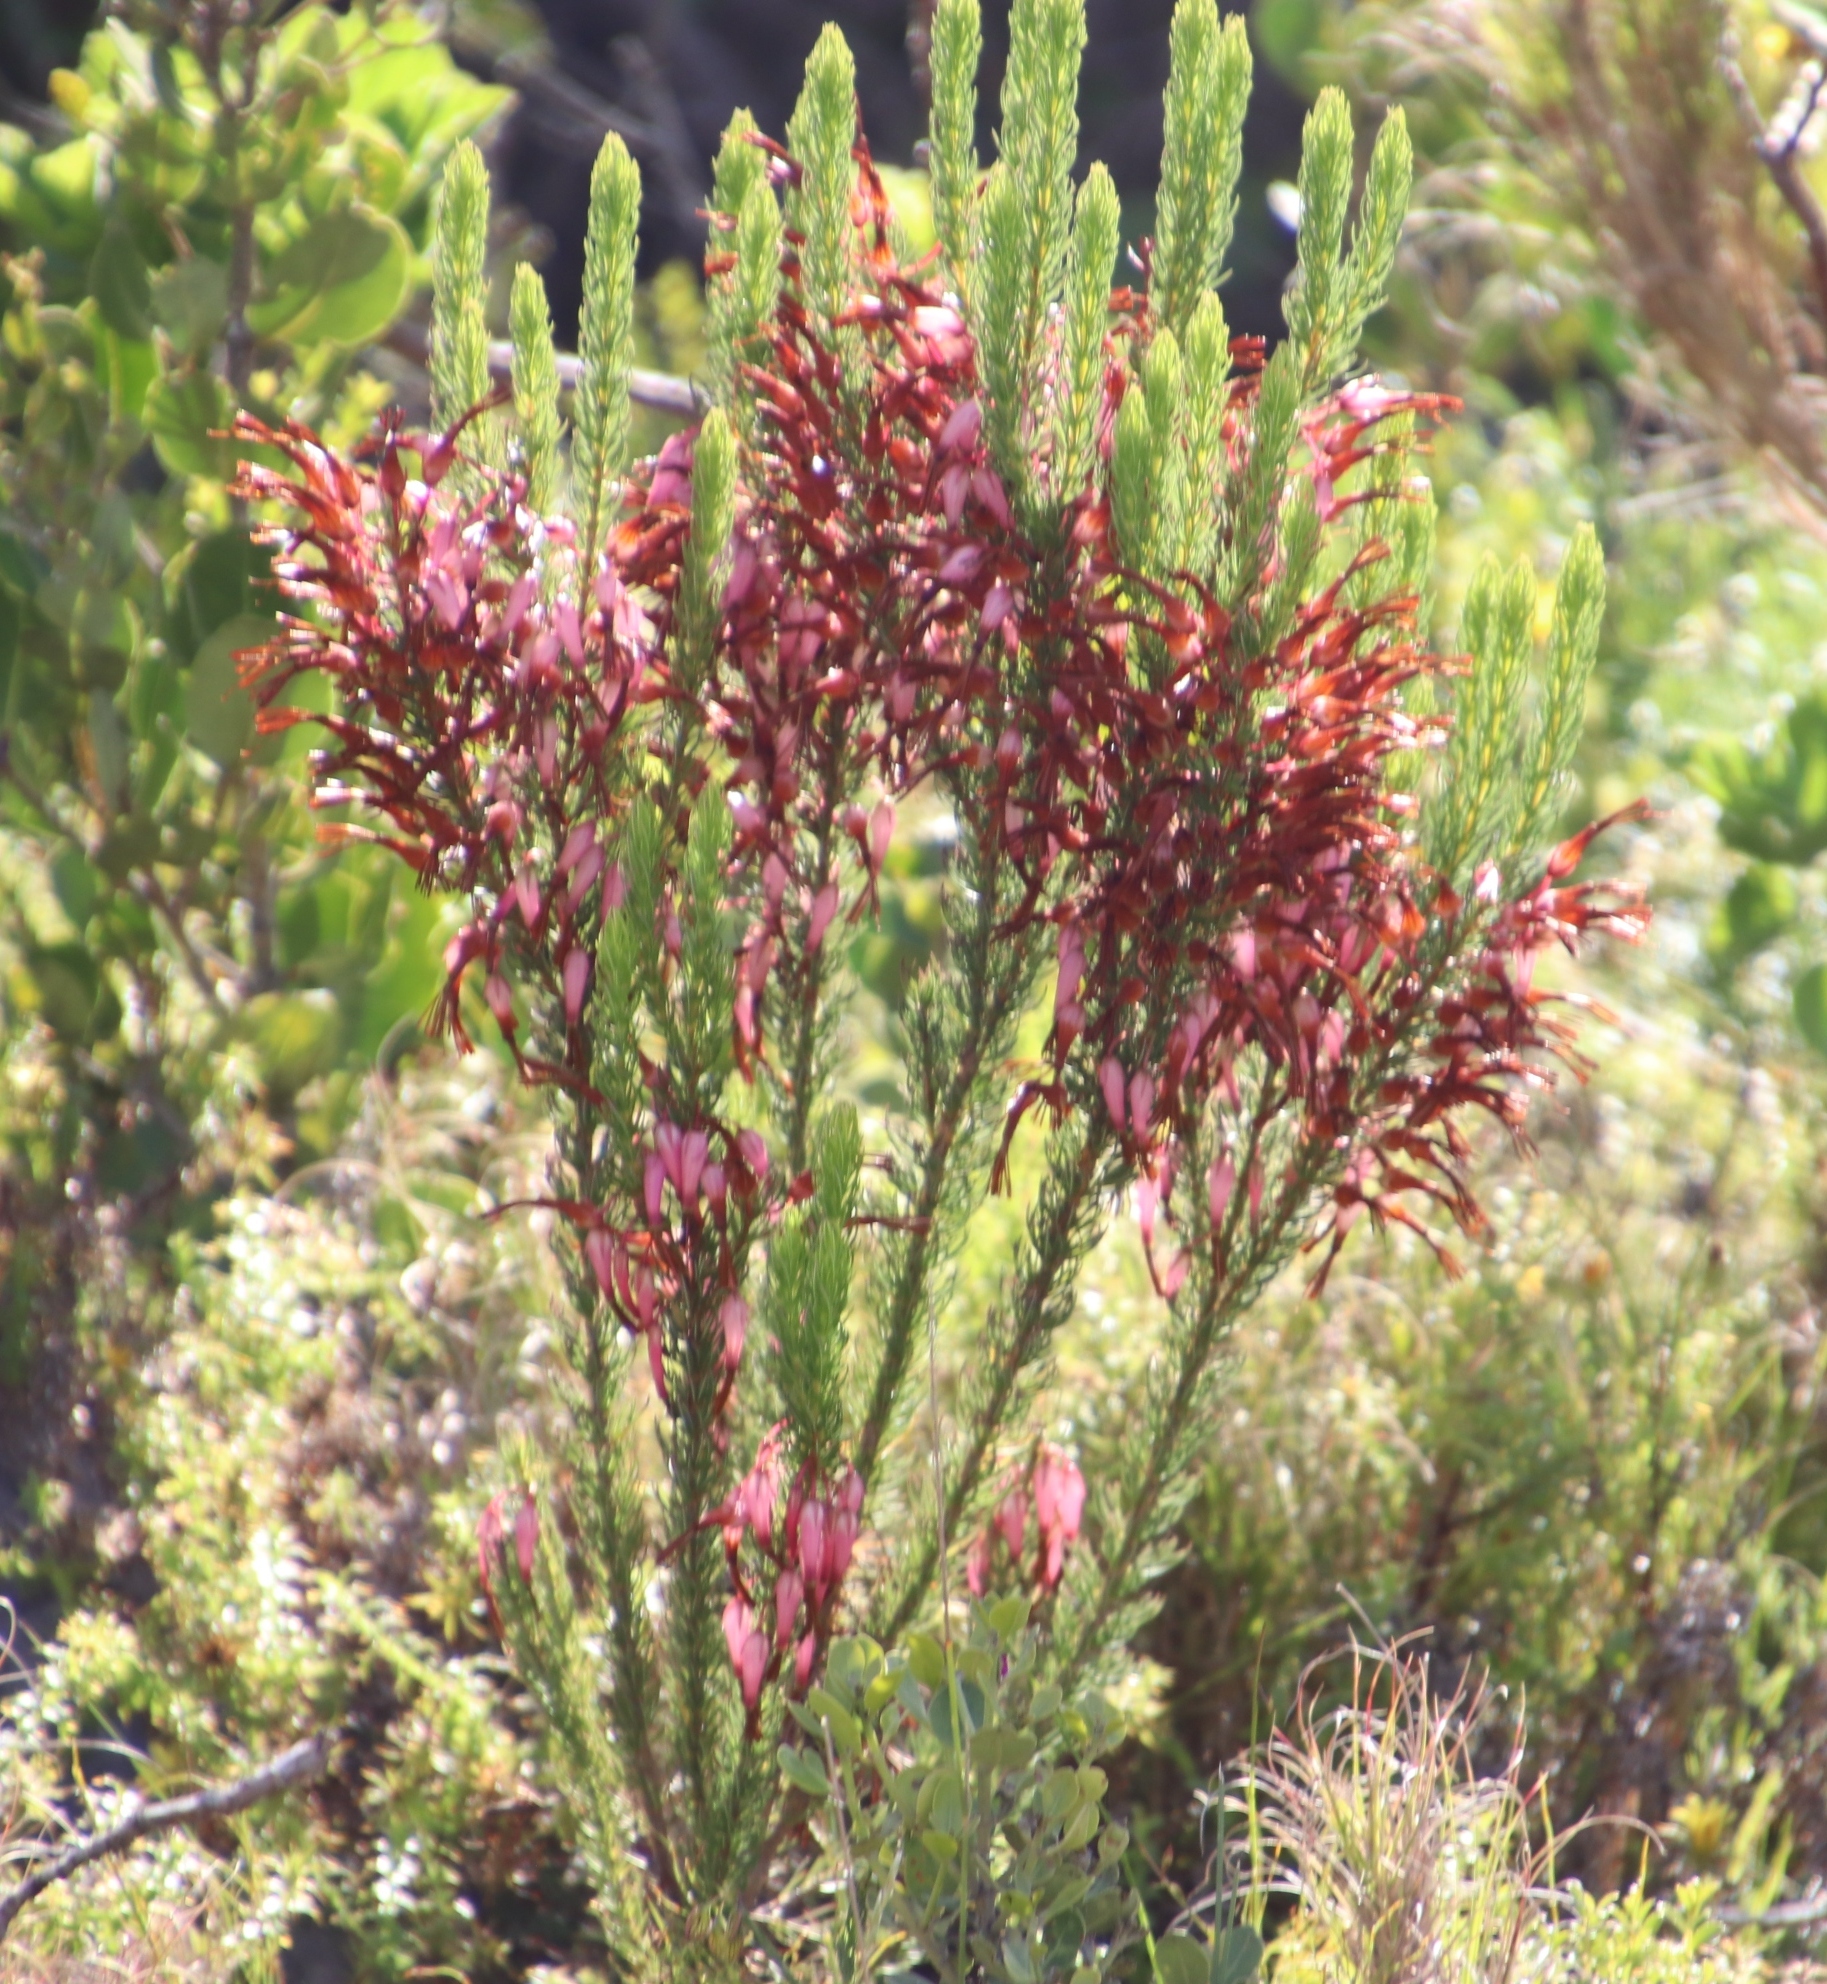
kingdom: Plantae
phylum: Tracheophyta
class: Magnoliopsida
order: Ericales
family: Ericaceae
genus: Erica
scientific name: Erica plukenetii
